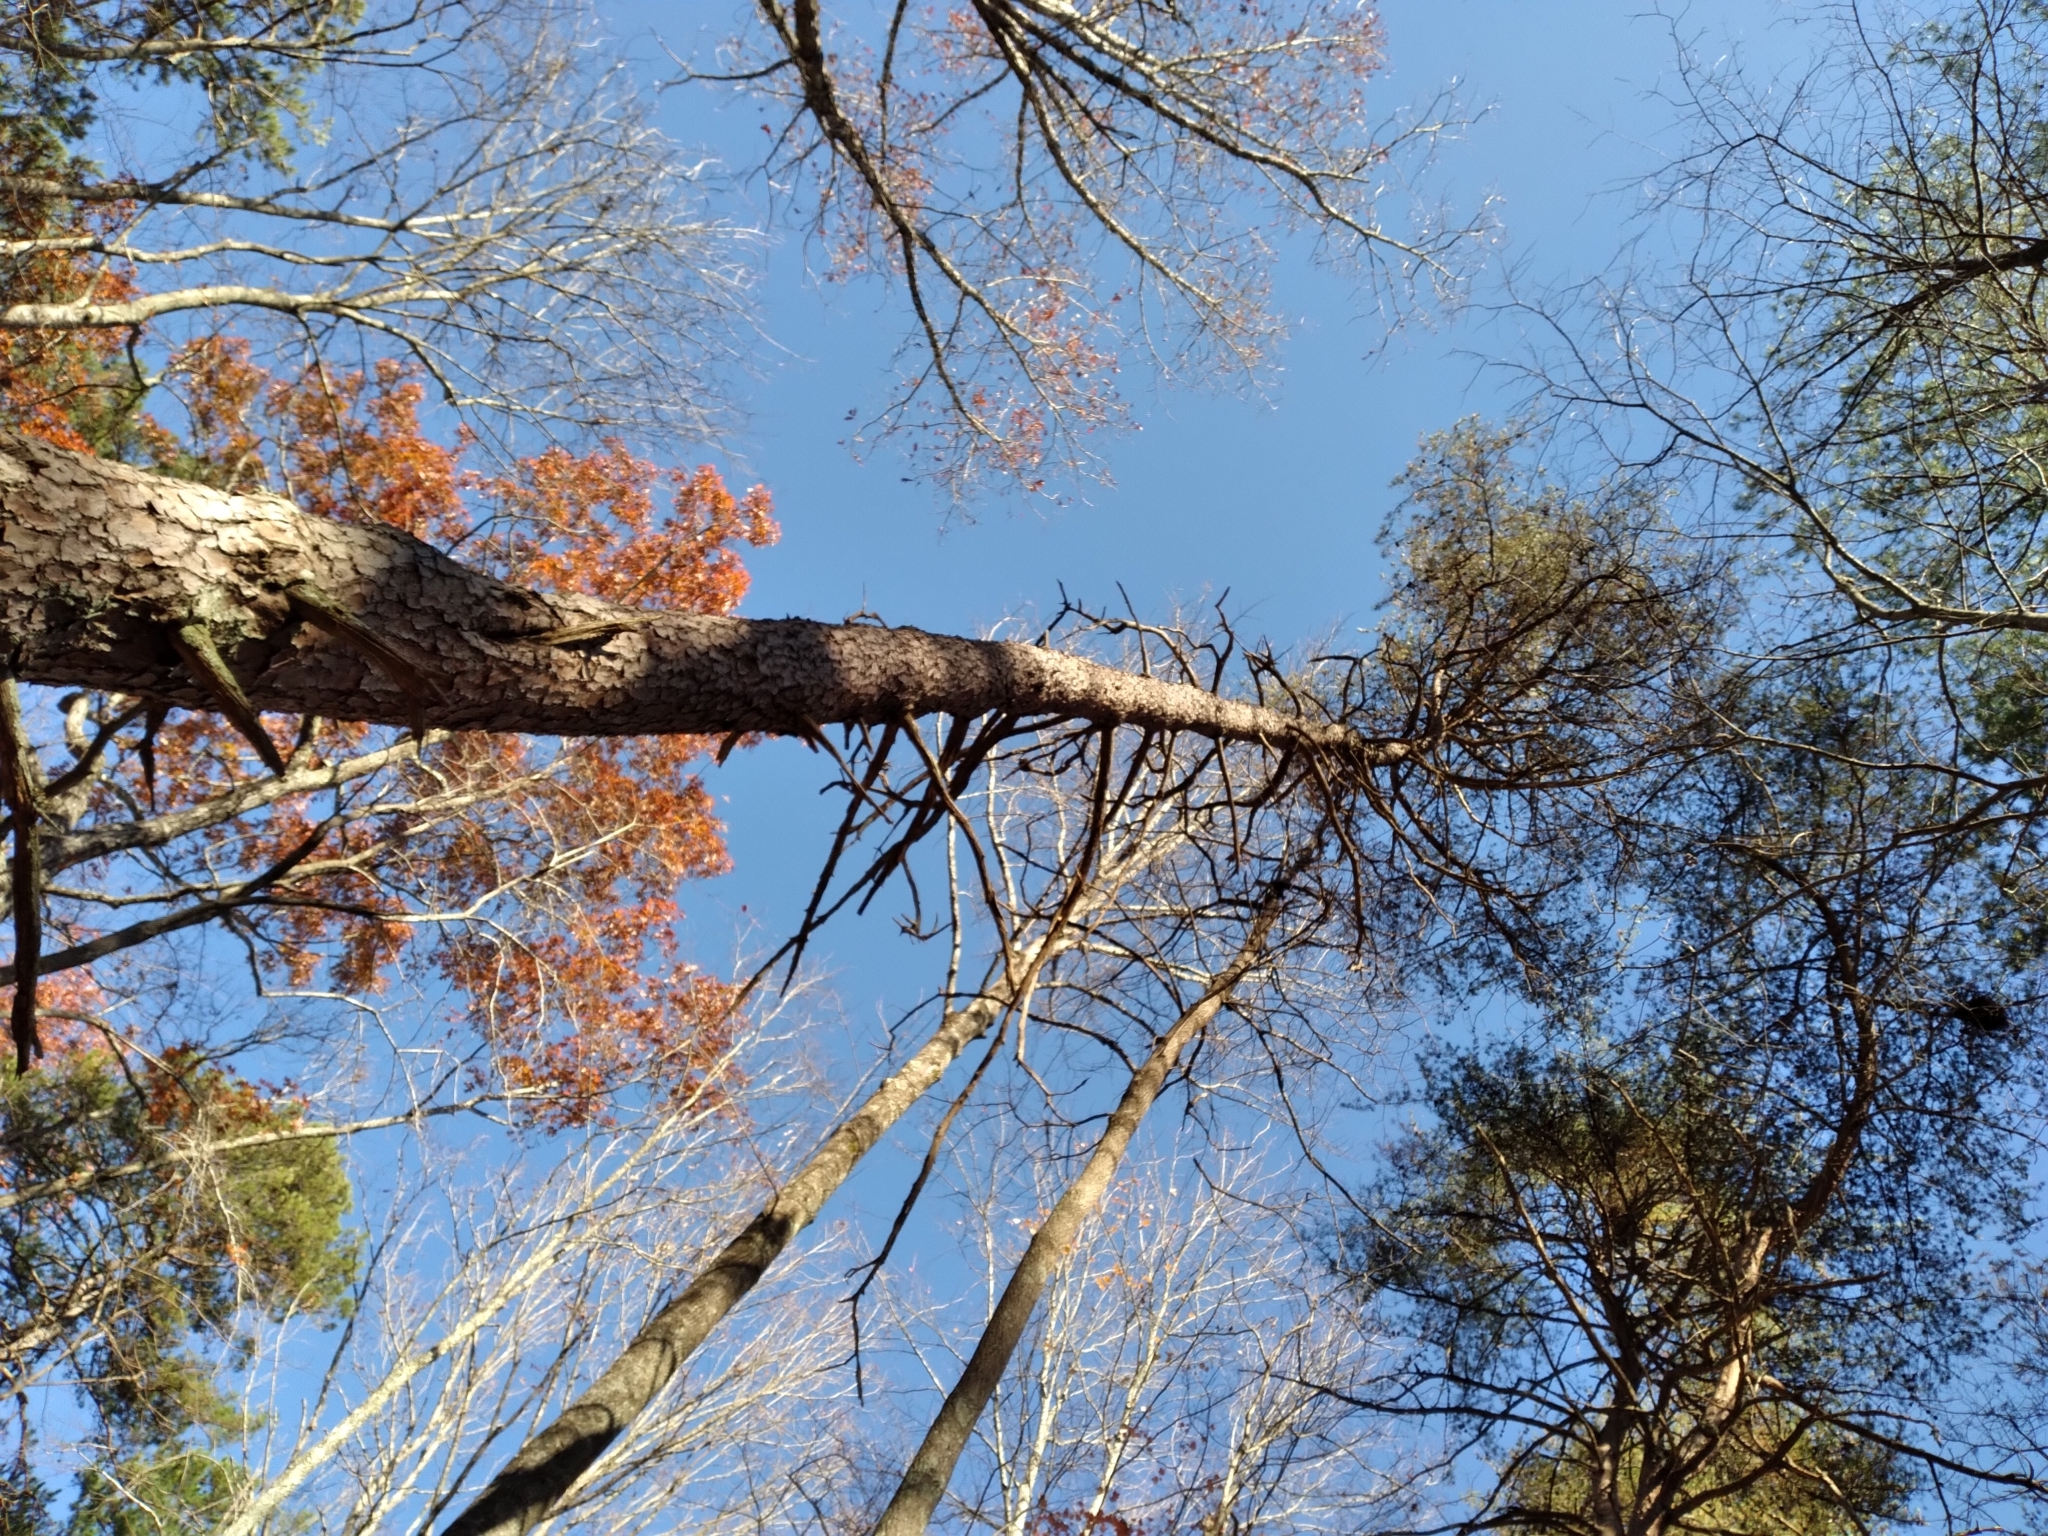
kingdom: Plantae
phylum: Tracheophyta
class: Pinopsida
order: Pinales
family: Pinaceae
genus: Pinus
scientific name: Pinus echinata
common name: Shortleaf pine
